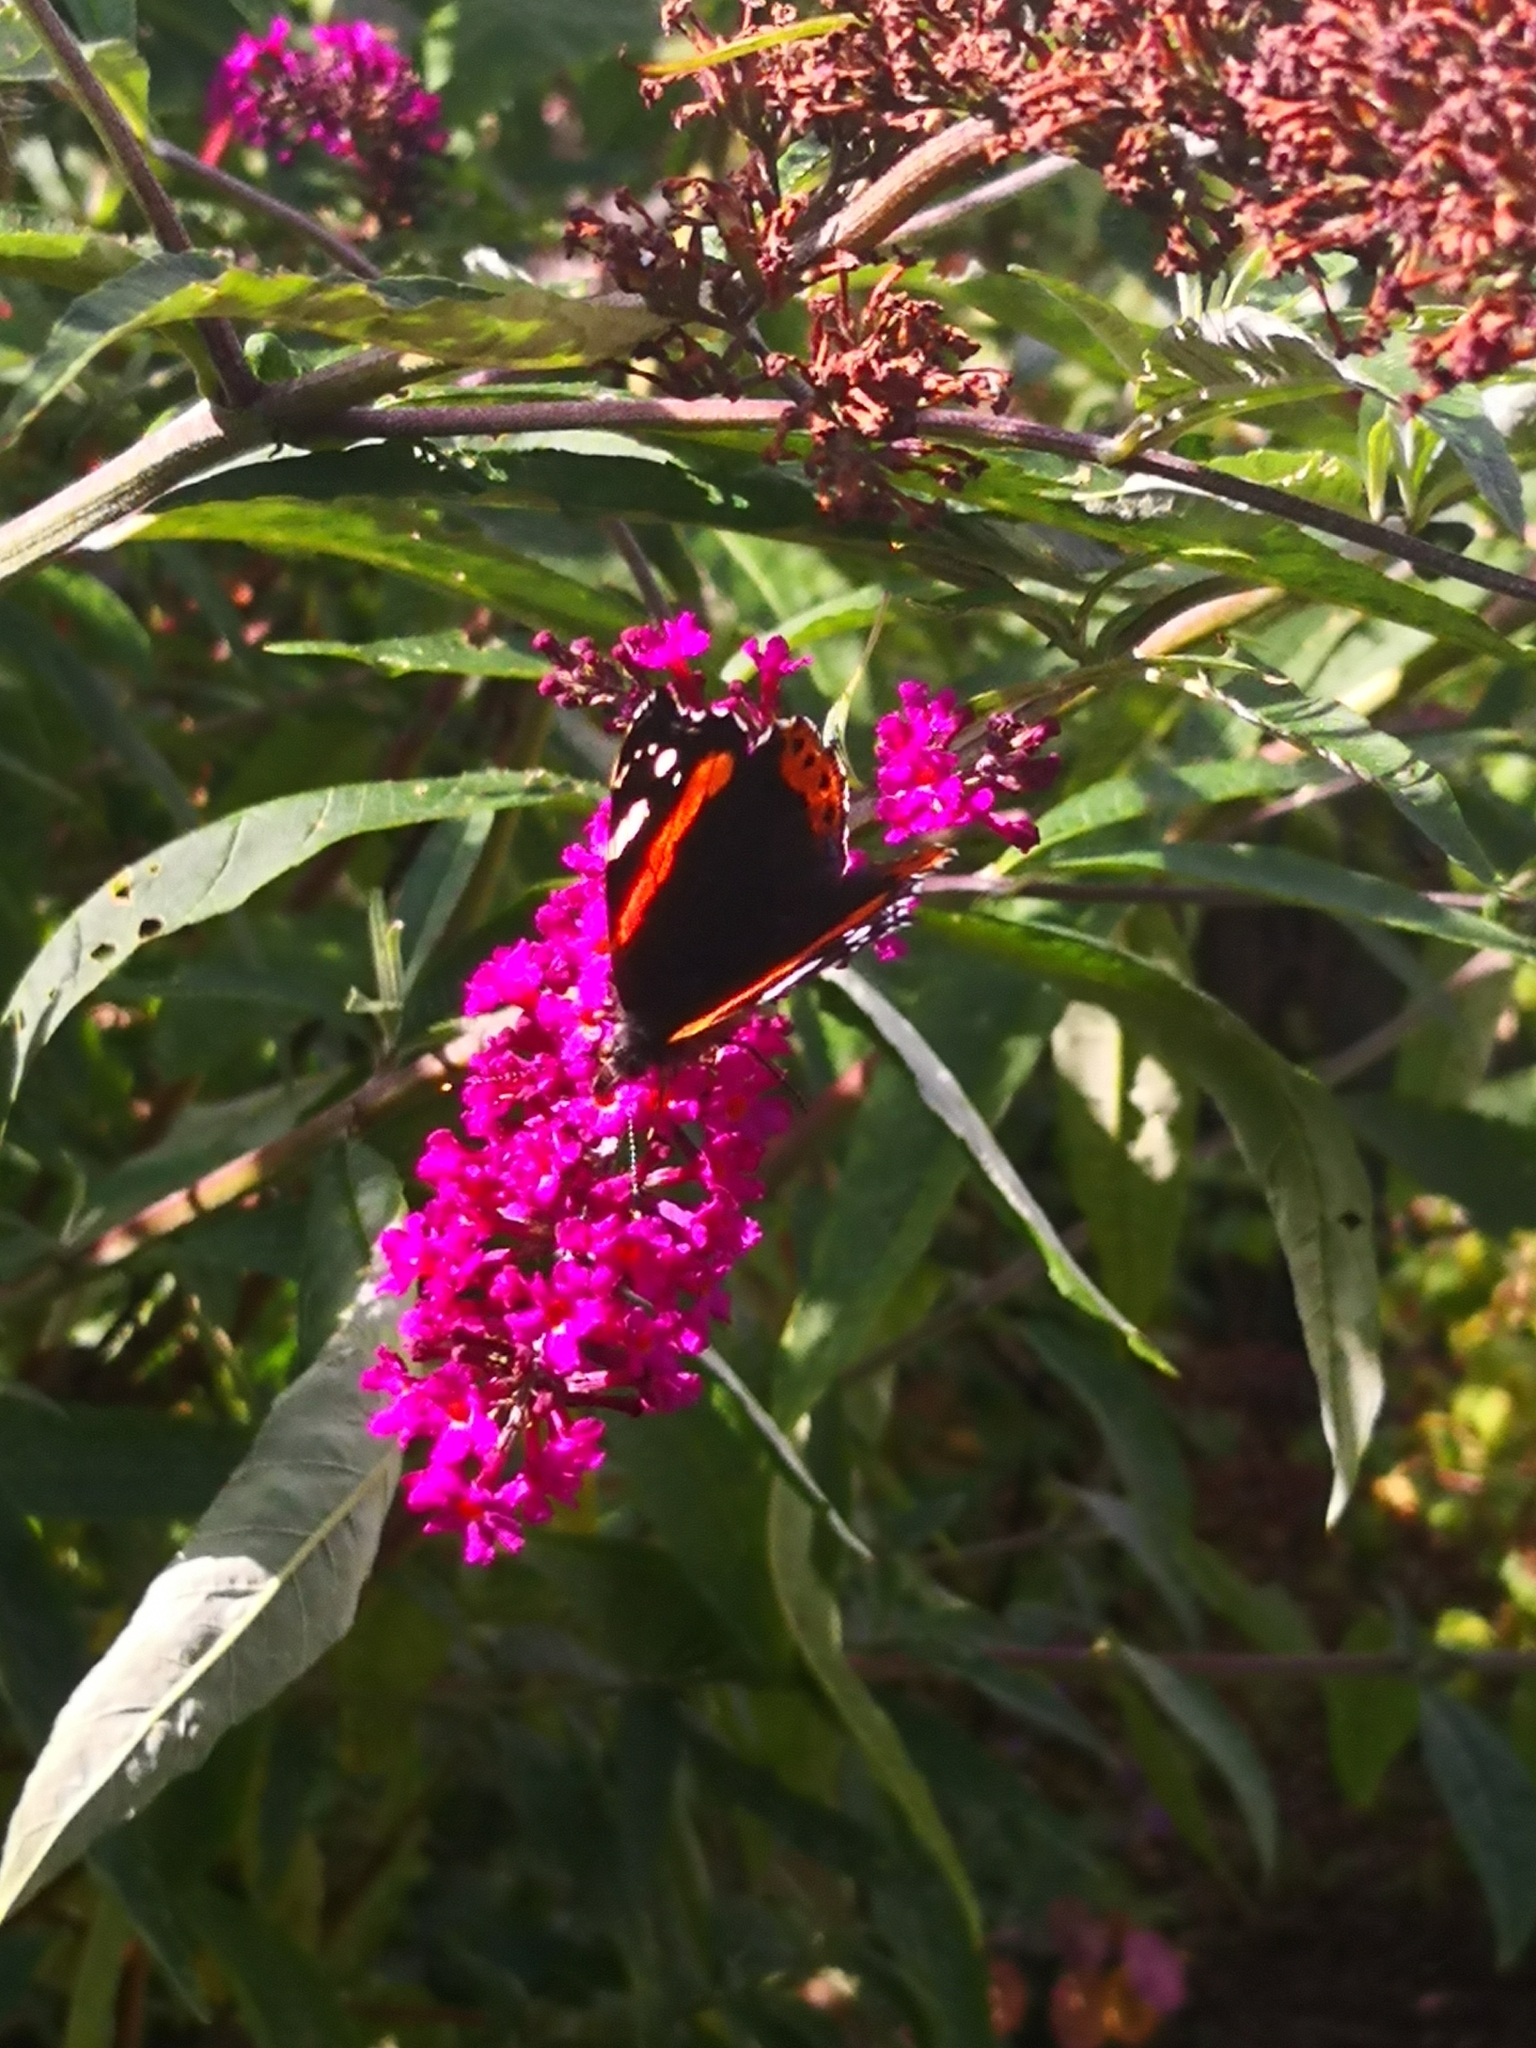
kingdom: Animalia
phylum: Arthropoda
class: Insecta
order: Lepidoptera
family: Nymphalidae
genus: Vanessa
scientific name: Vanessa atalanta
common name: Red admiral
